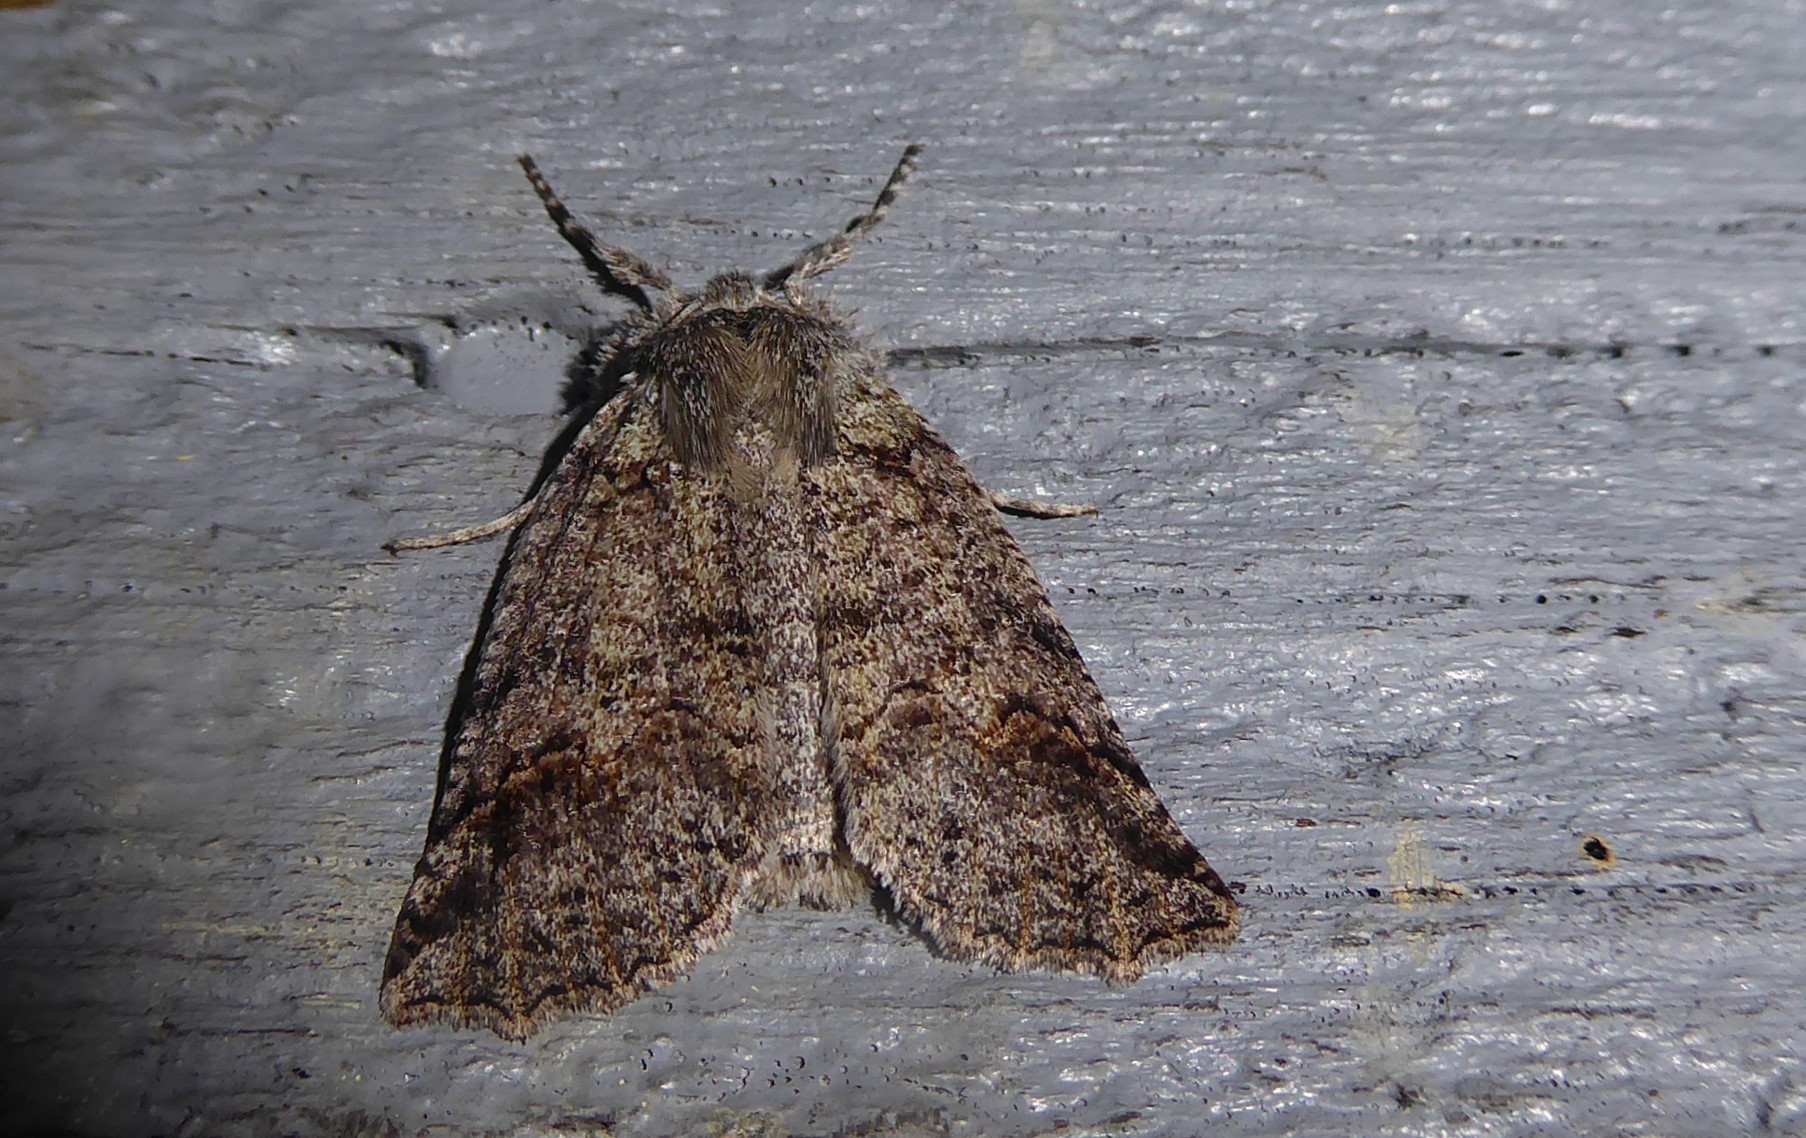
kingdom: Animalia
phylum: Arthropoda
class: Insecta
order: Lepidoptera
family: Geometridae
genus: Declana
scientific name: Declana floccosa
